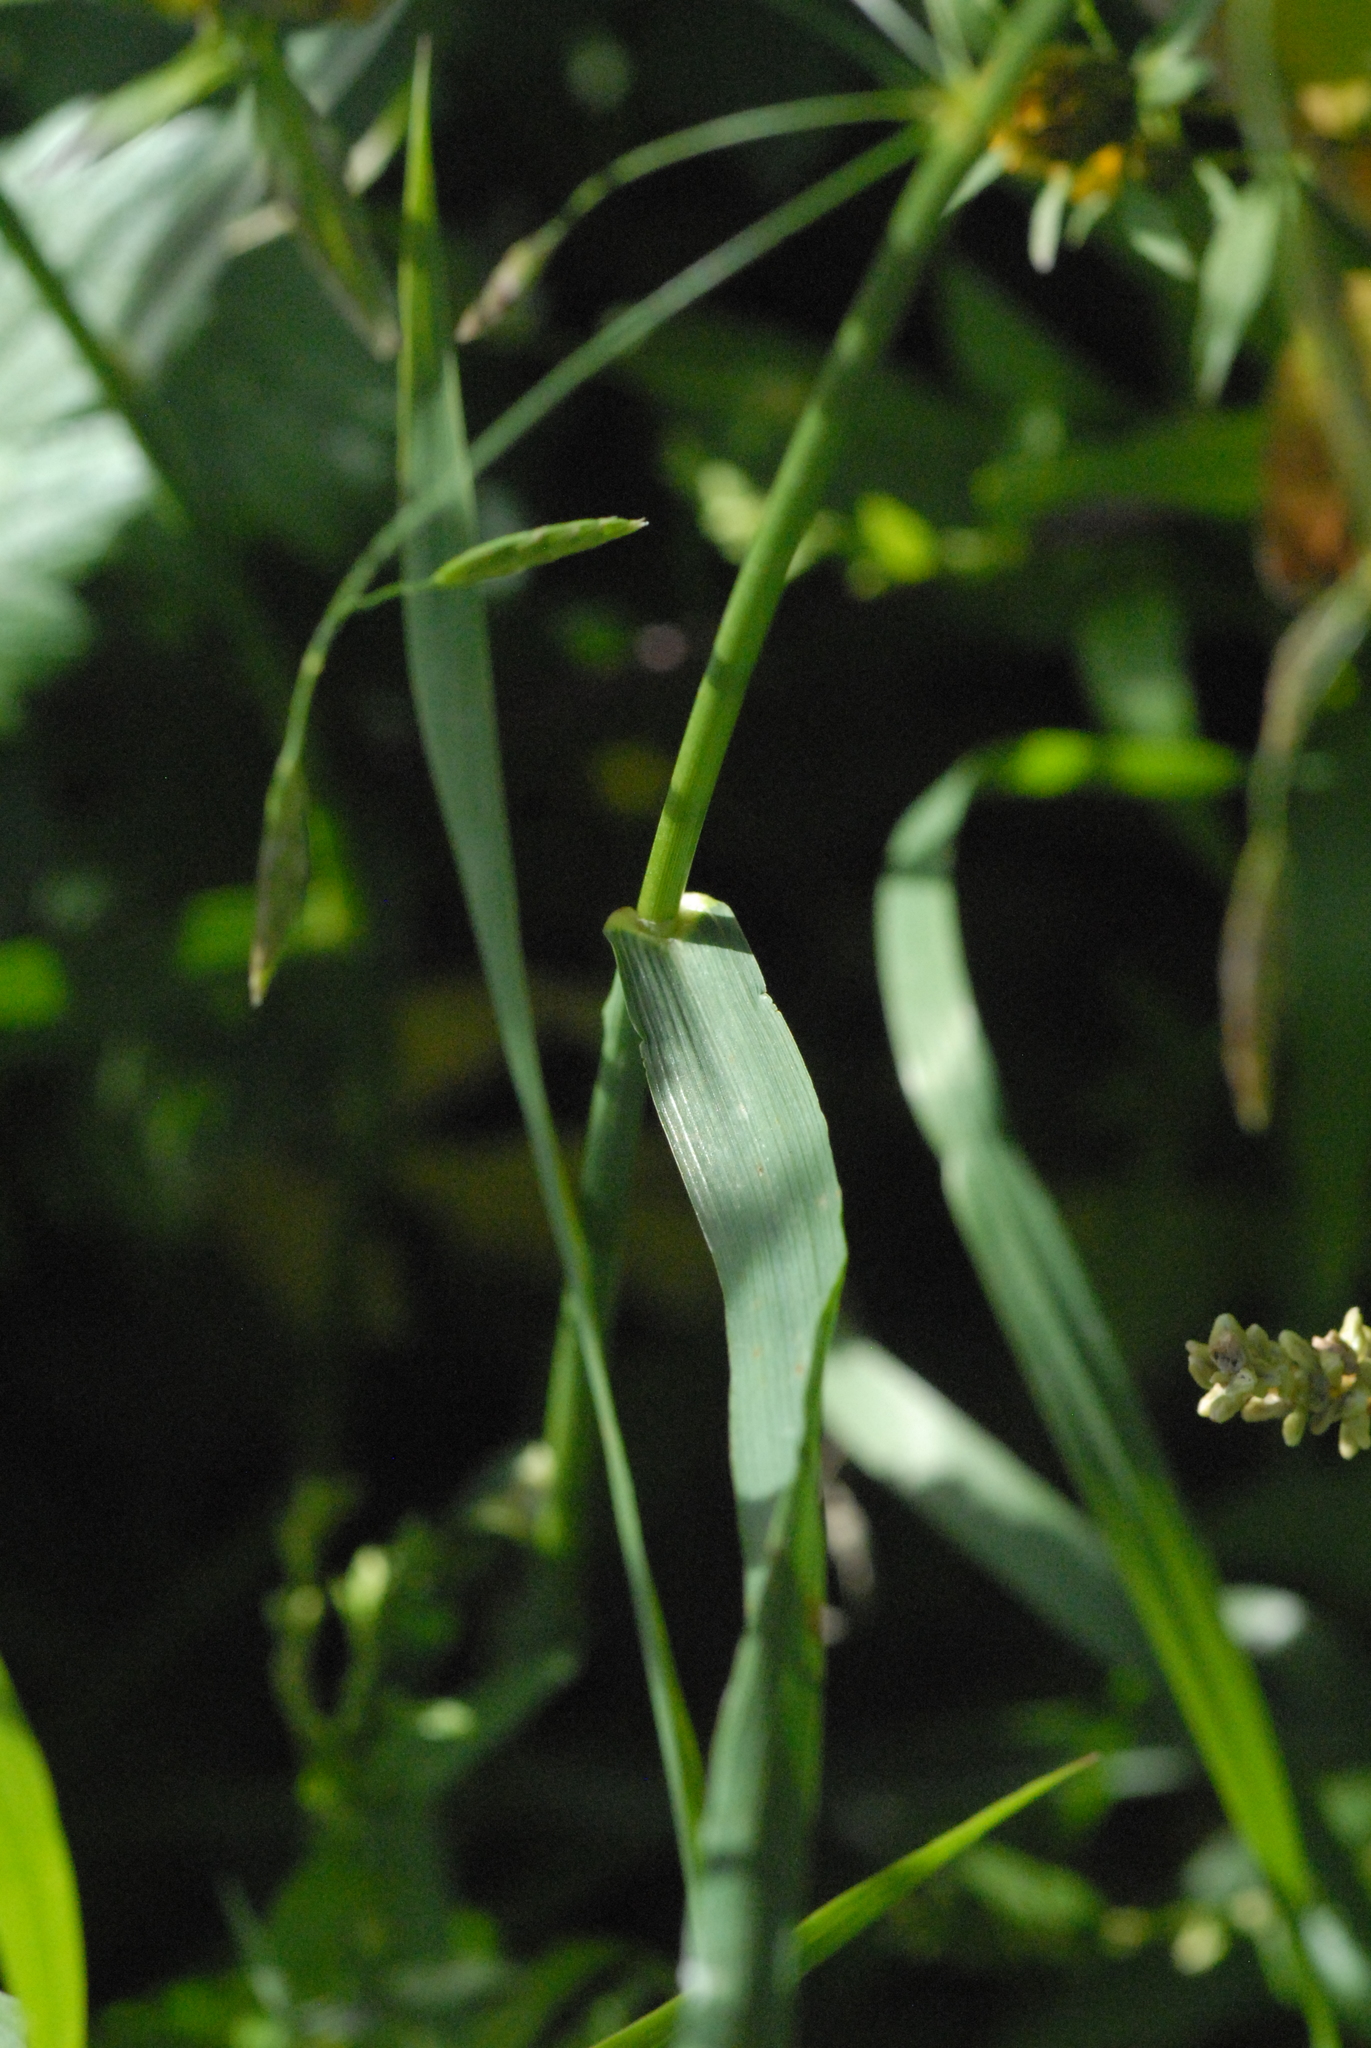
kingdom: Plantae
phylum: Tracheophyta
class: Liliopsida
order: Poales
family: Poaceae
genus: Bromus
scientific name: Bromus inermis
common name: Smooth brome
